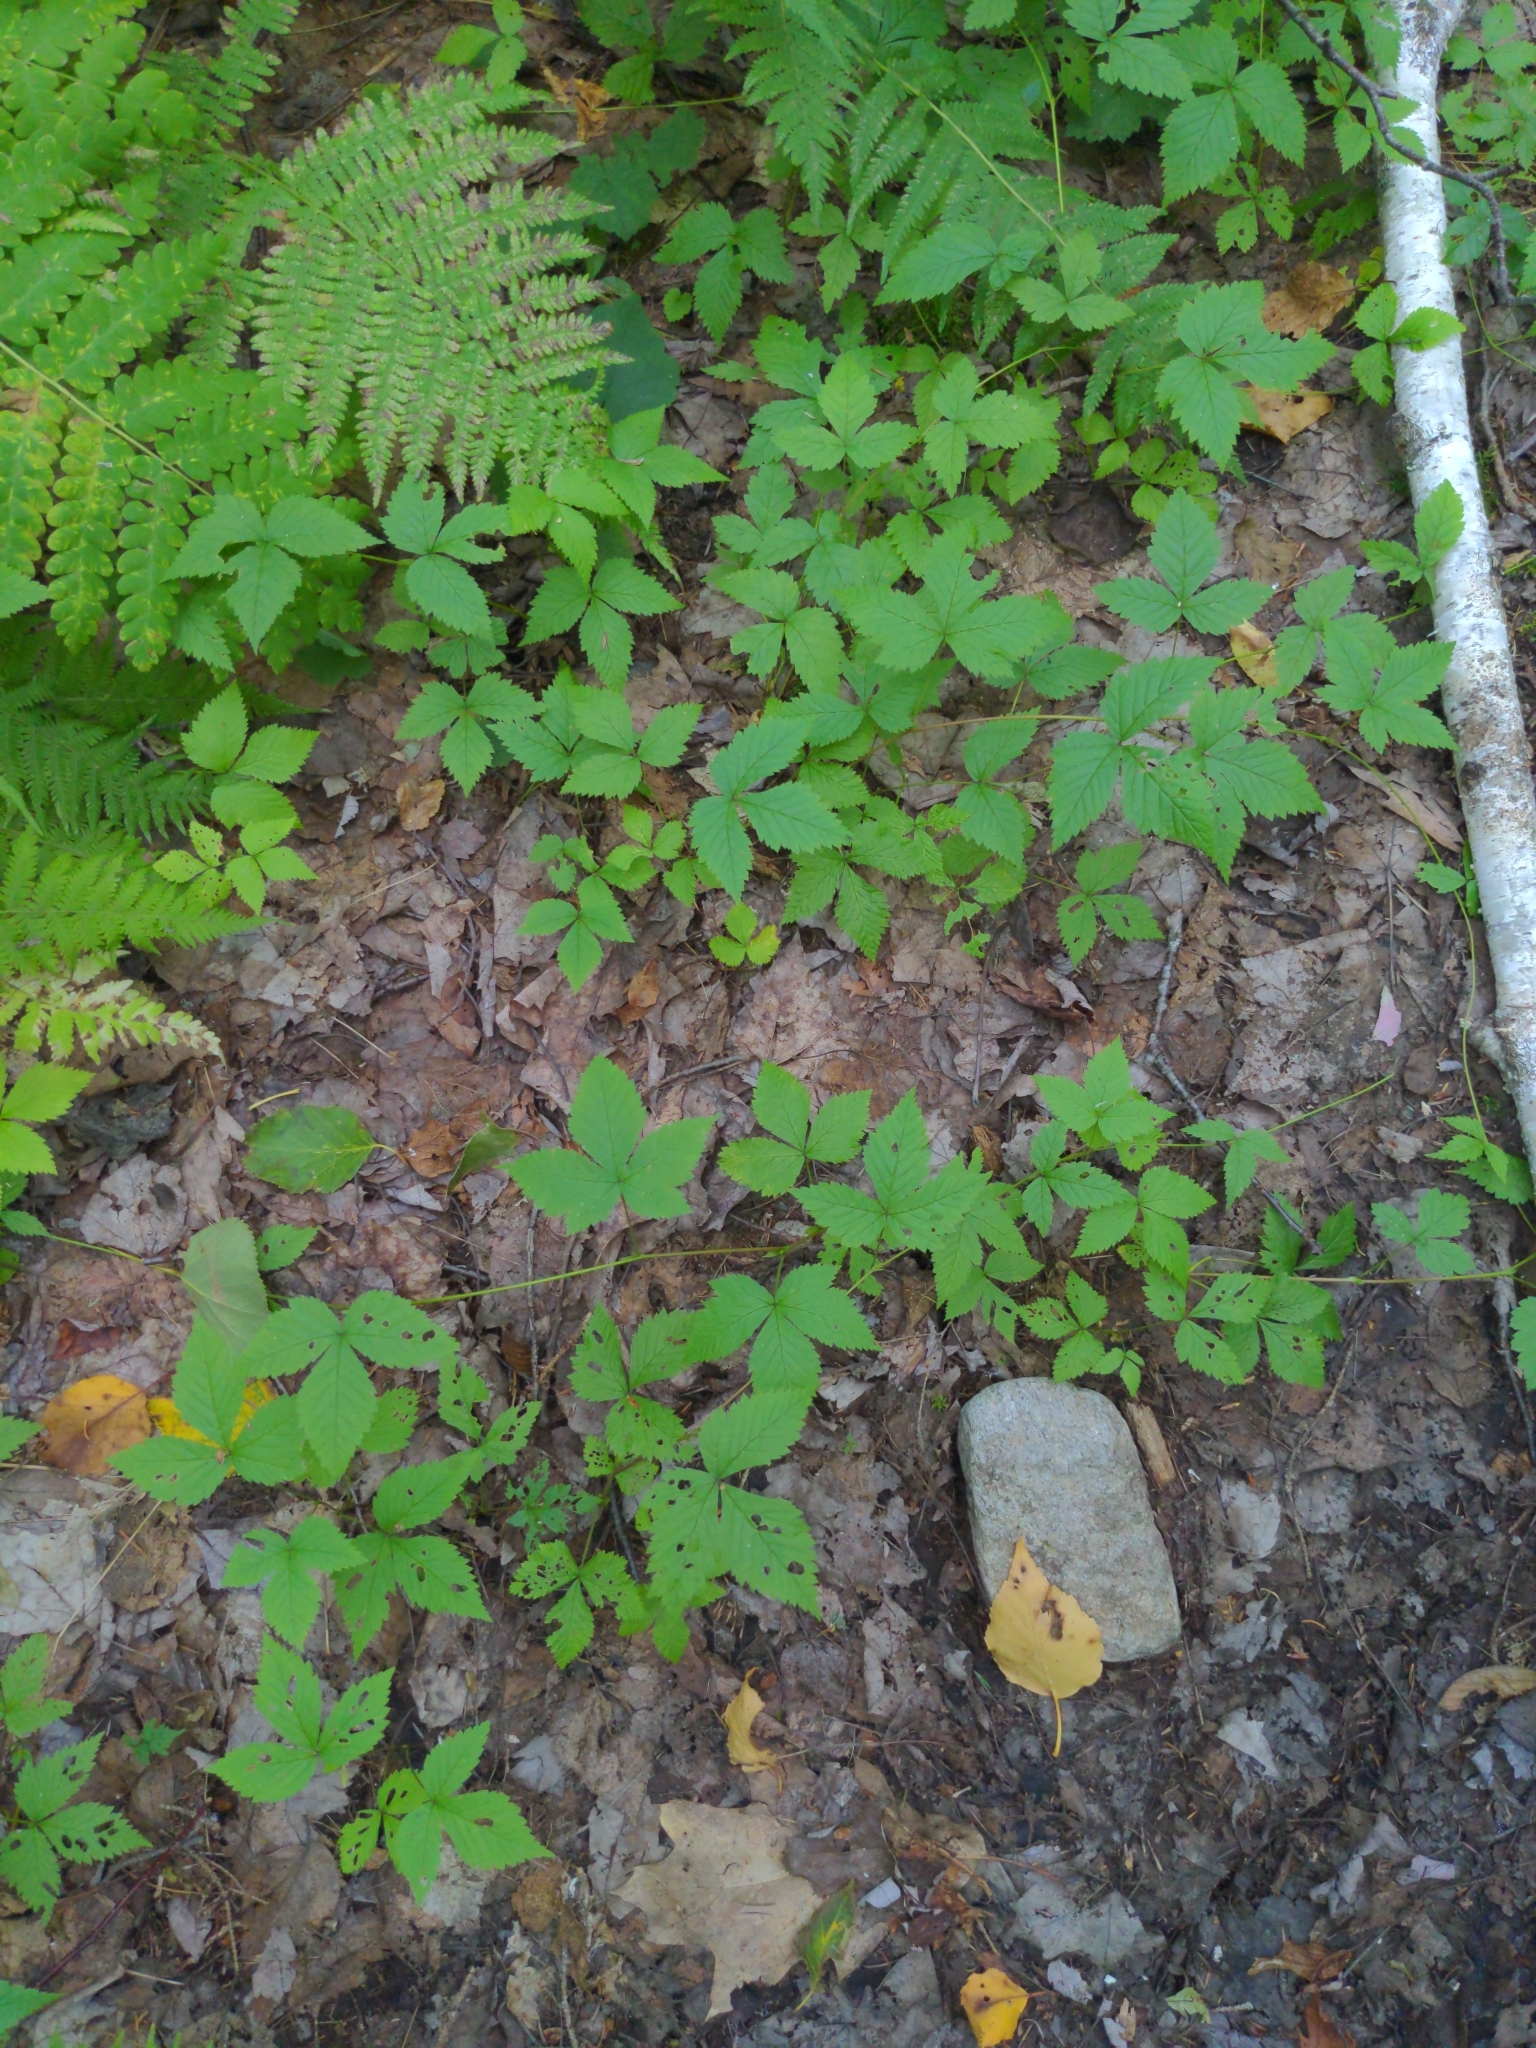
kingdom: Plantae
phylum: Tracheophyta
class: Magnoliopsida
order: Rosales
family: Rosaceae
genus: Rubus
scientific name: Rubus pubescens
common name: Dwarf raspberry
